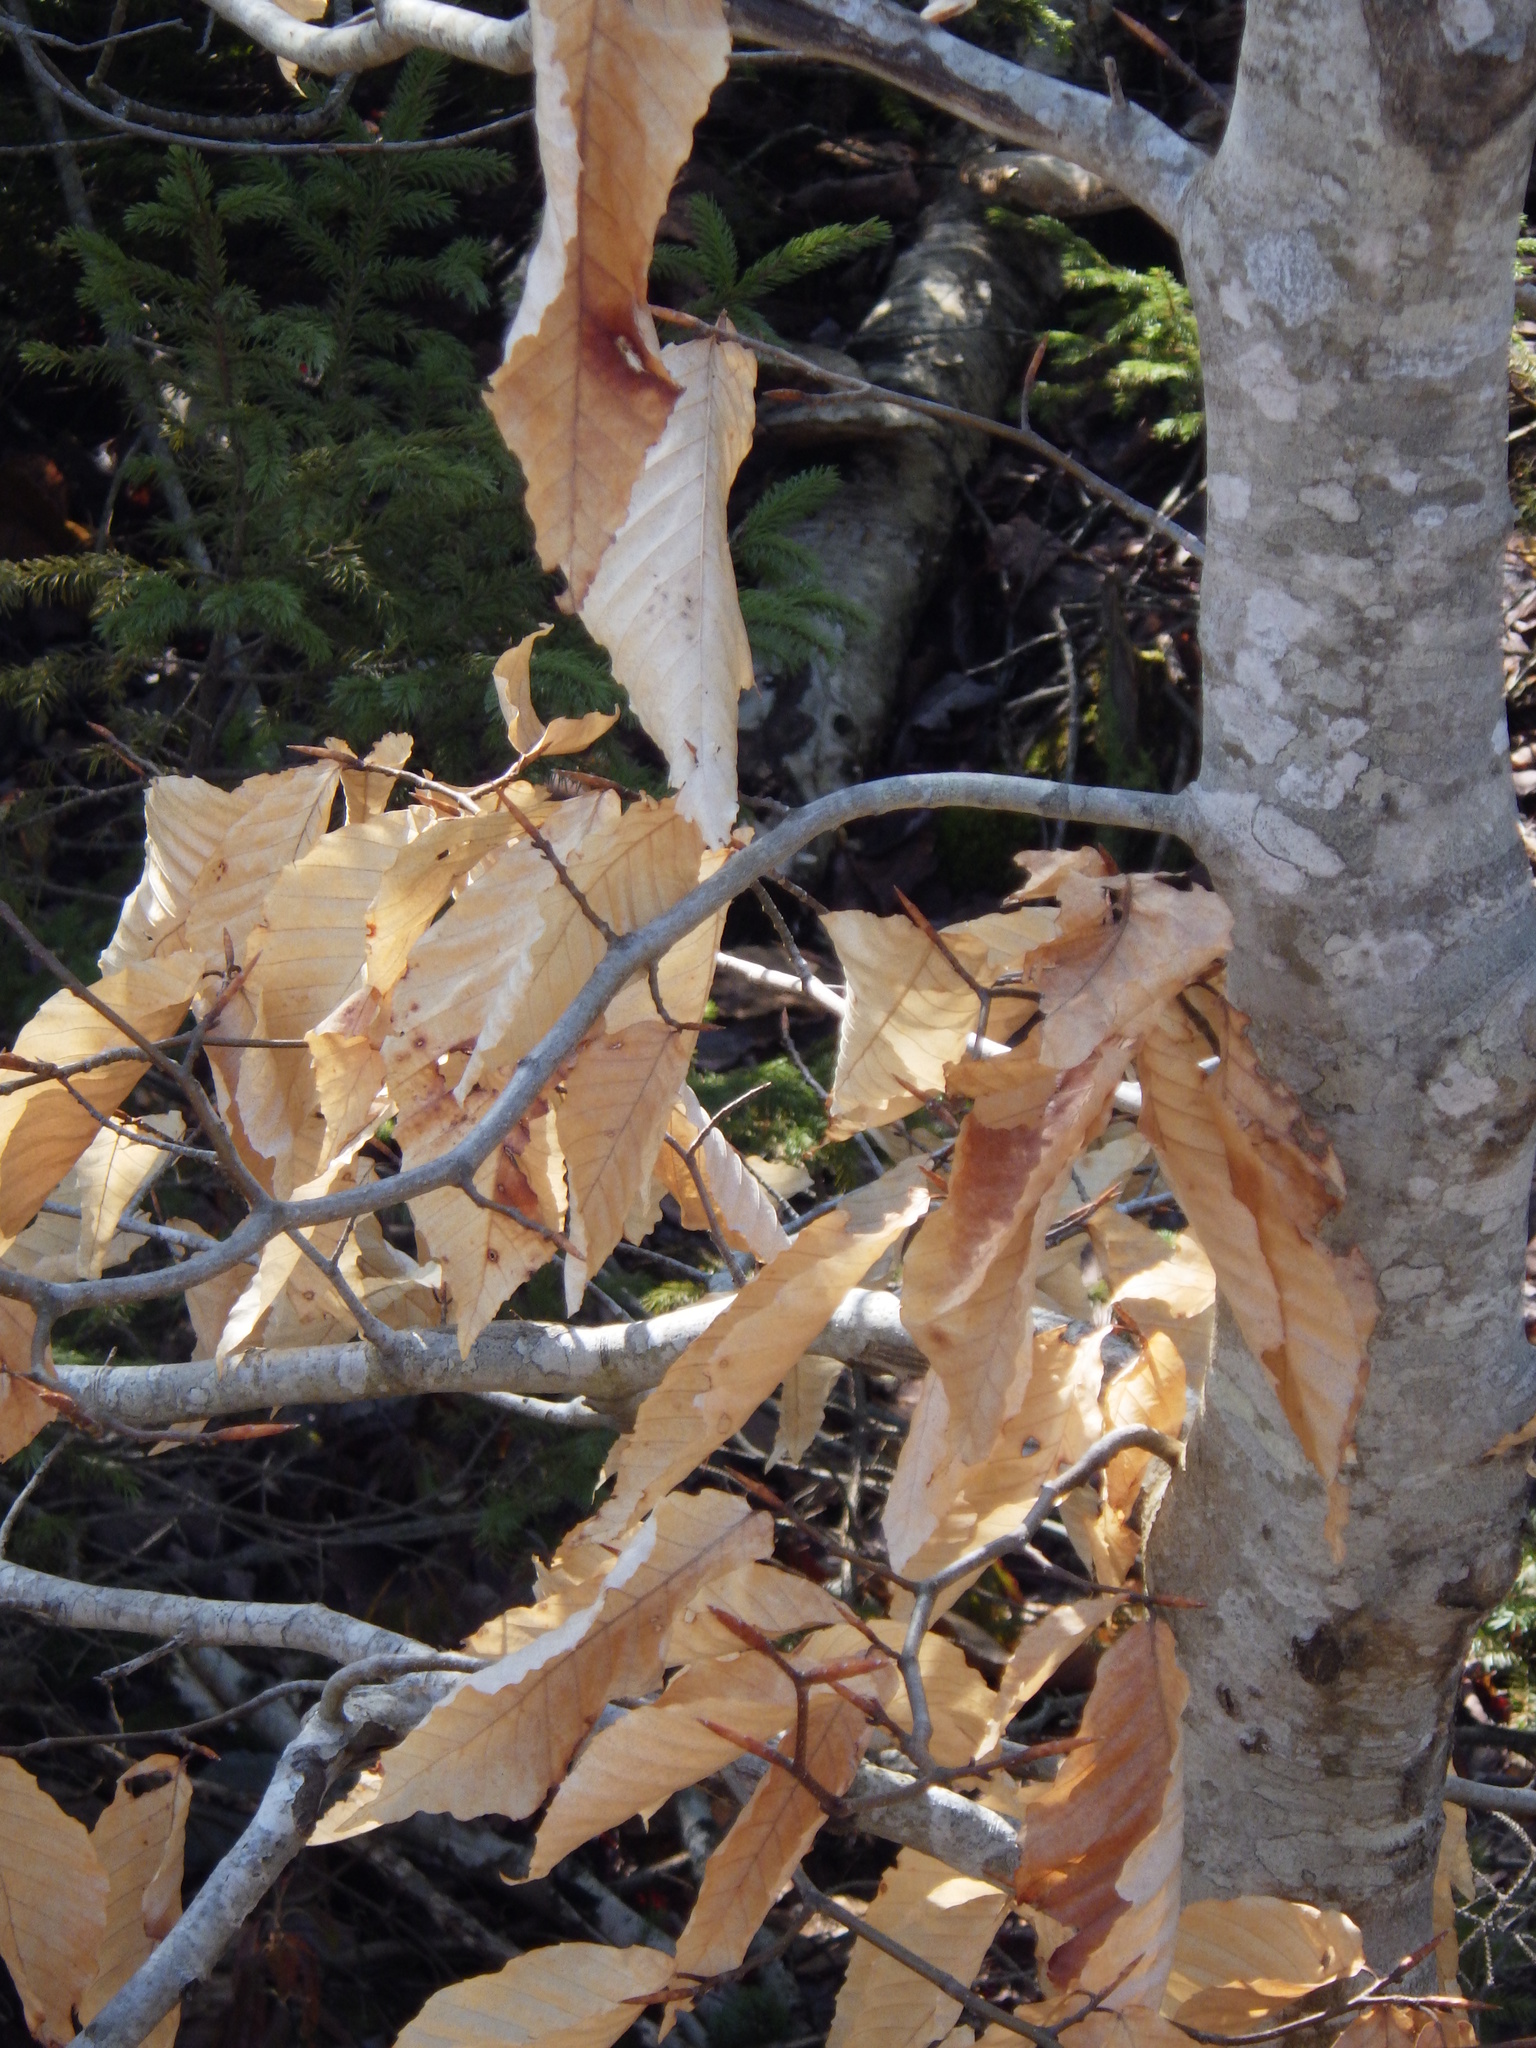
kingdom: Plantae
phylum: Tracheophyta
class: Magnoliopsida
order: Fagales
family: Fagaceae
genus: Fagus
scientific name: Fagus grandifolia
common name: American beech
